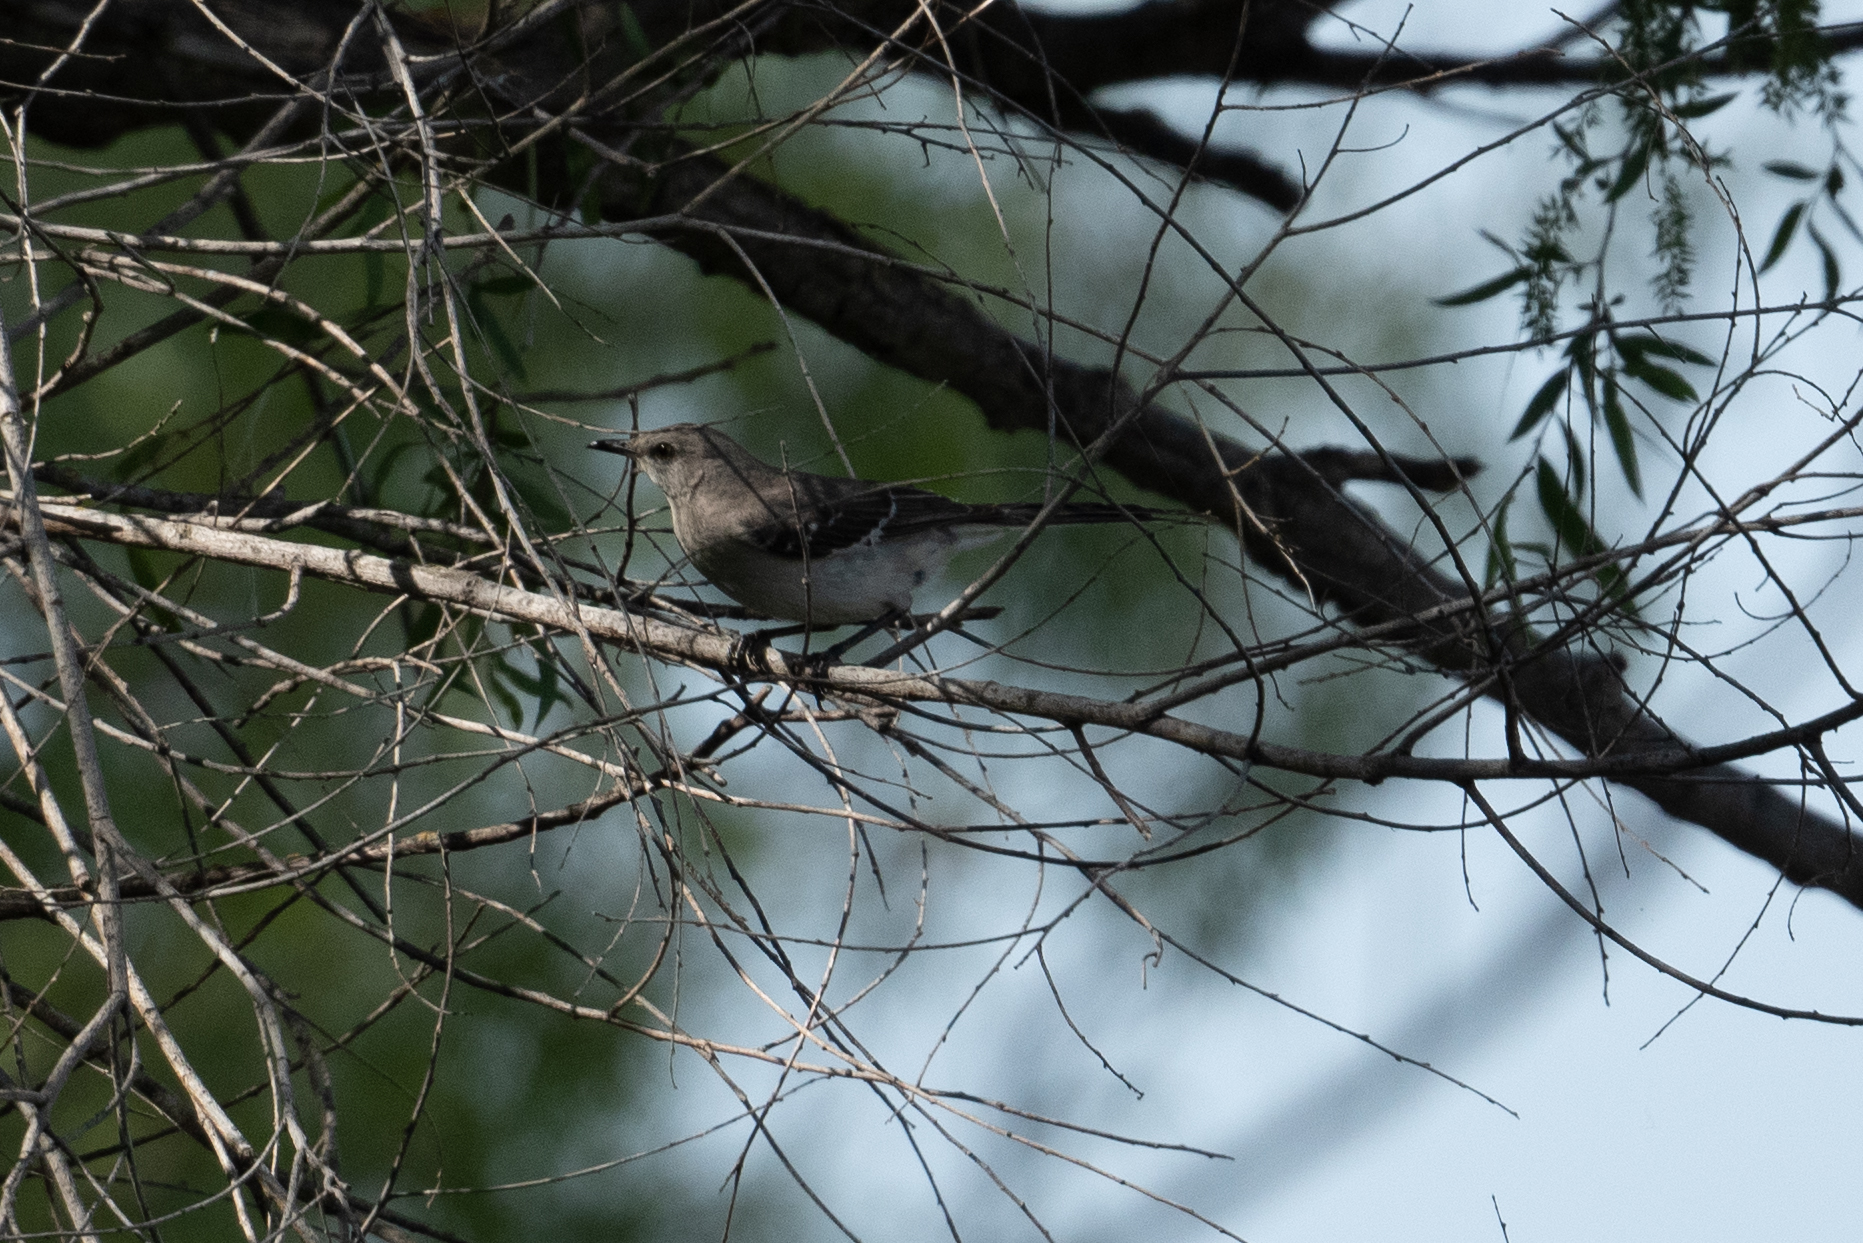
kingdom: Animalia
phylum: Chordata
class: Aves
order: Passeriformes
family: Mimidae
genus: Mimus
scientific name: Mimus polyglottos
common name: Northern mockingbird
